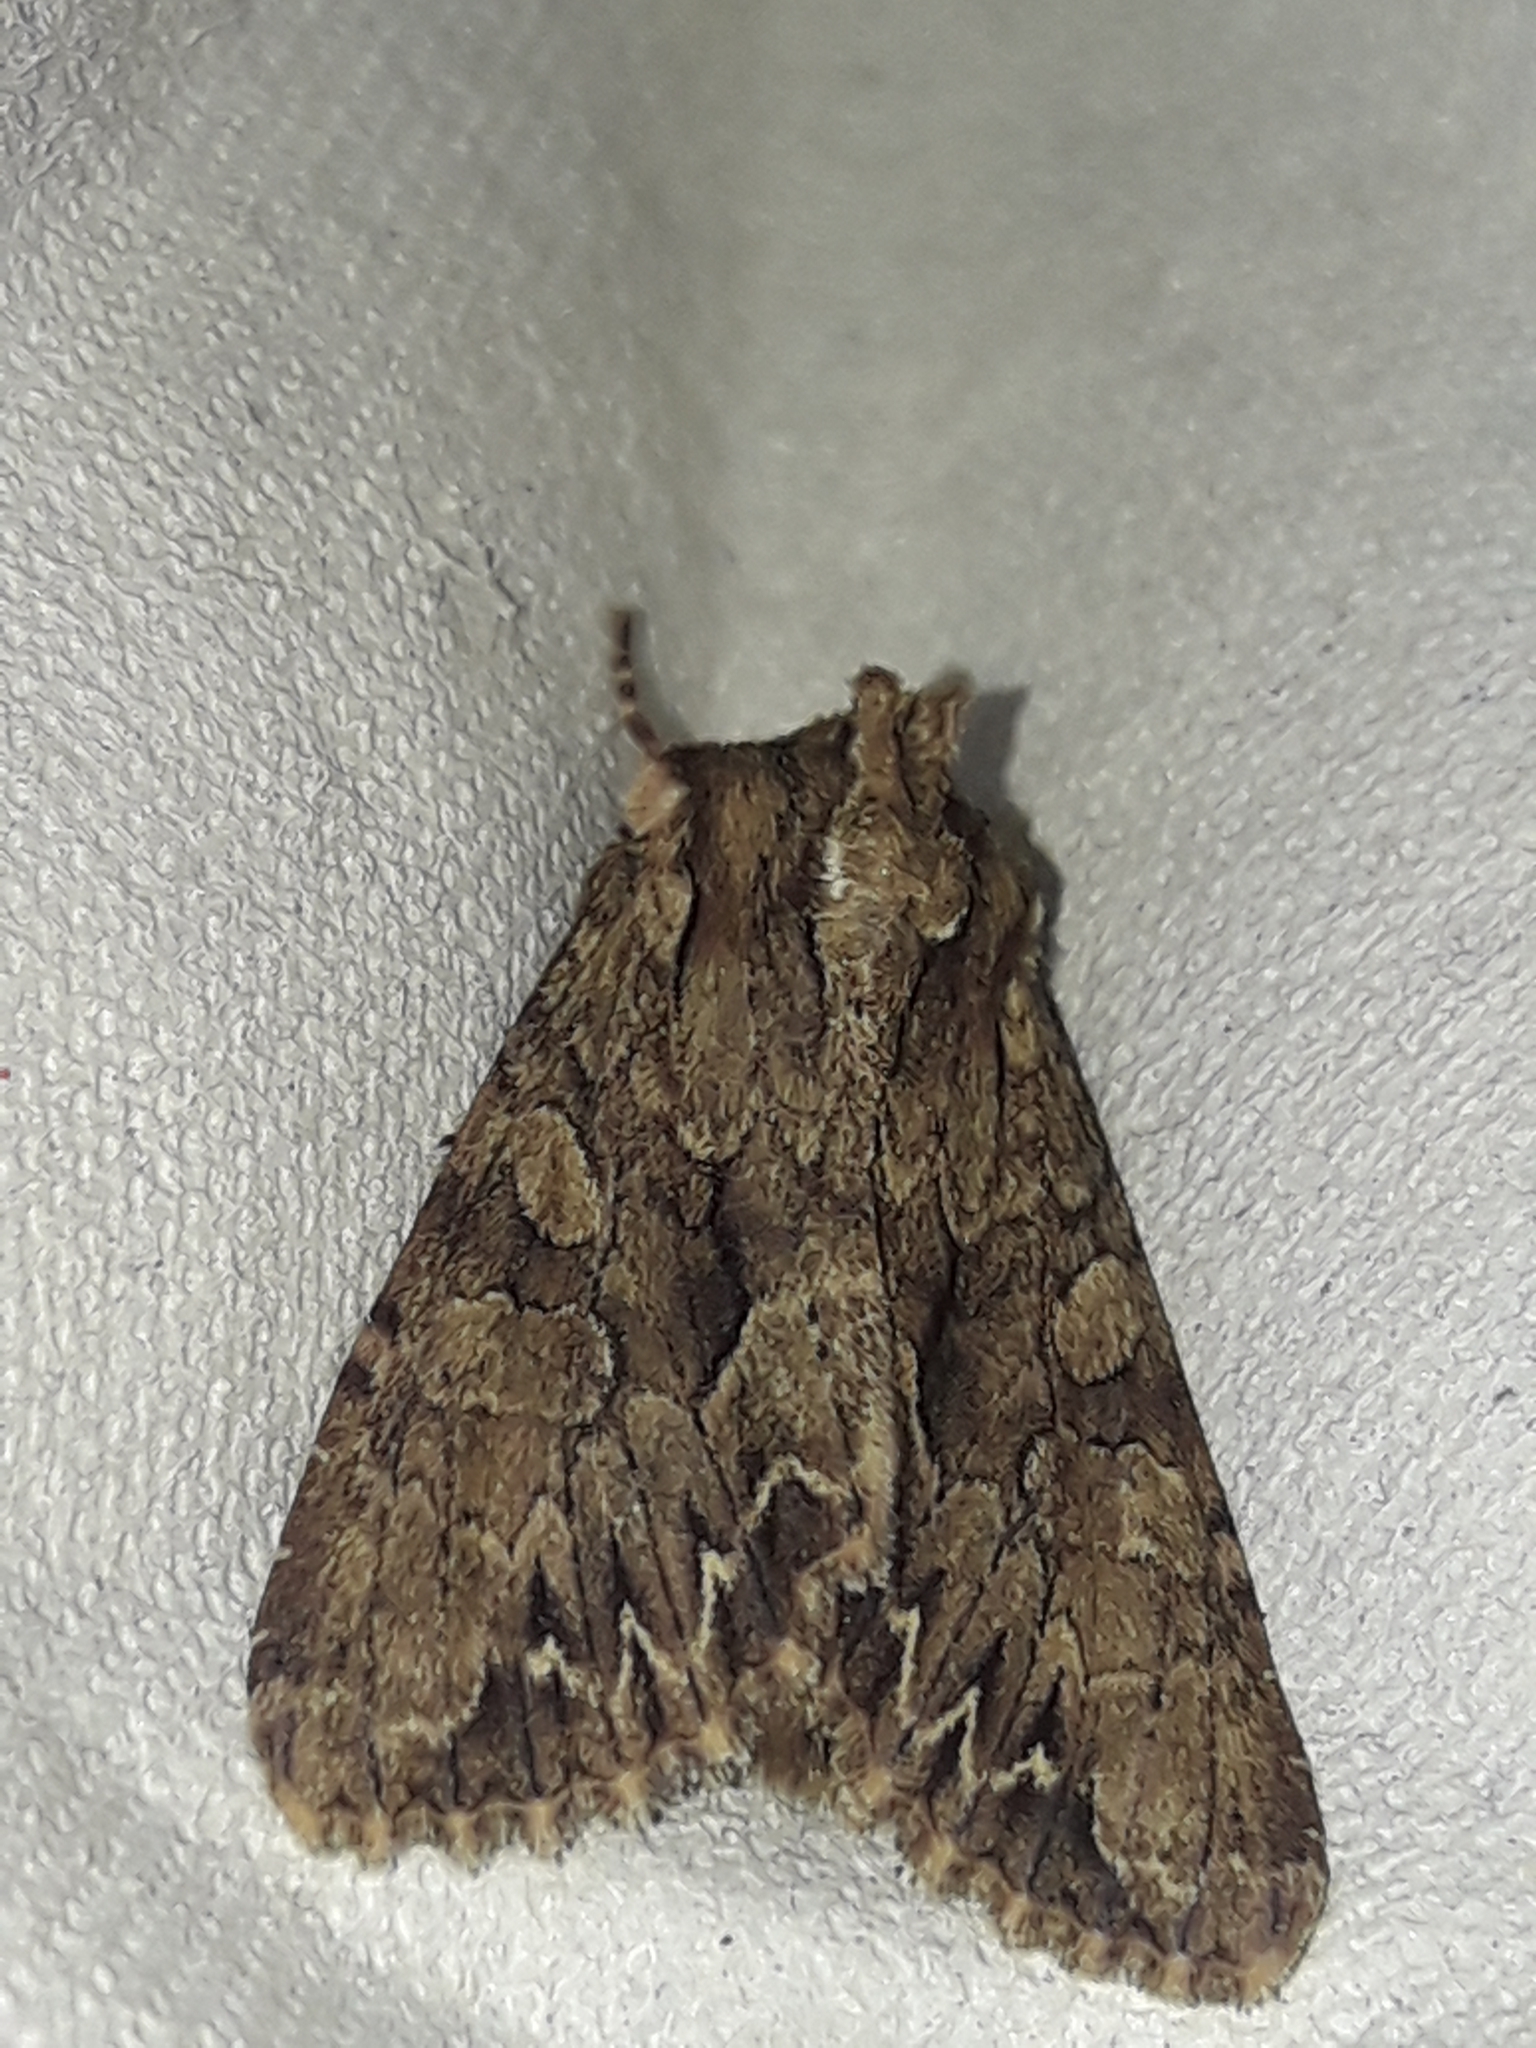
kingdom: Animalia
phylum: Arthropoda
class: Insecta
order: Lepidoptera
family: Noctuidae
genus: Apamea
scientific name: Apamea monoglypha
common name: Dark arches
